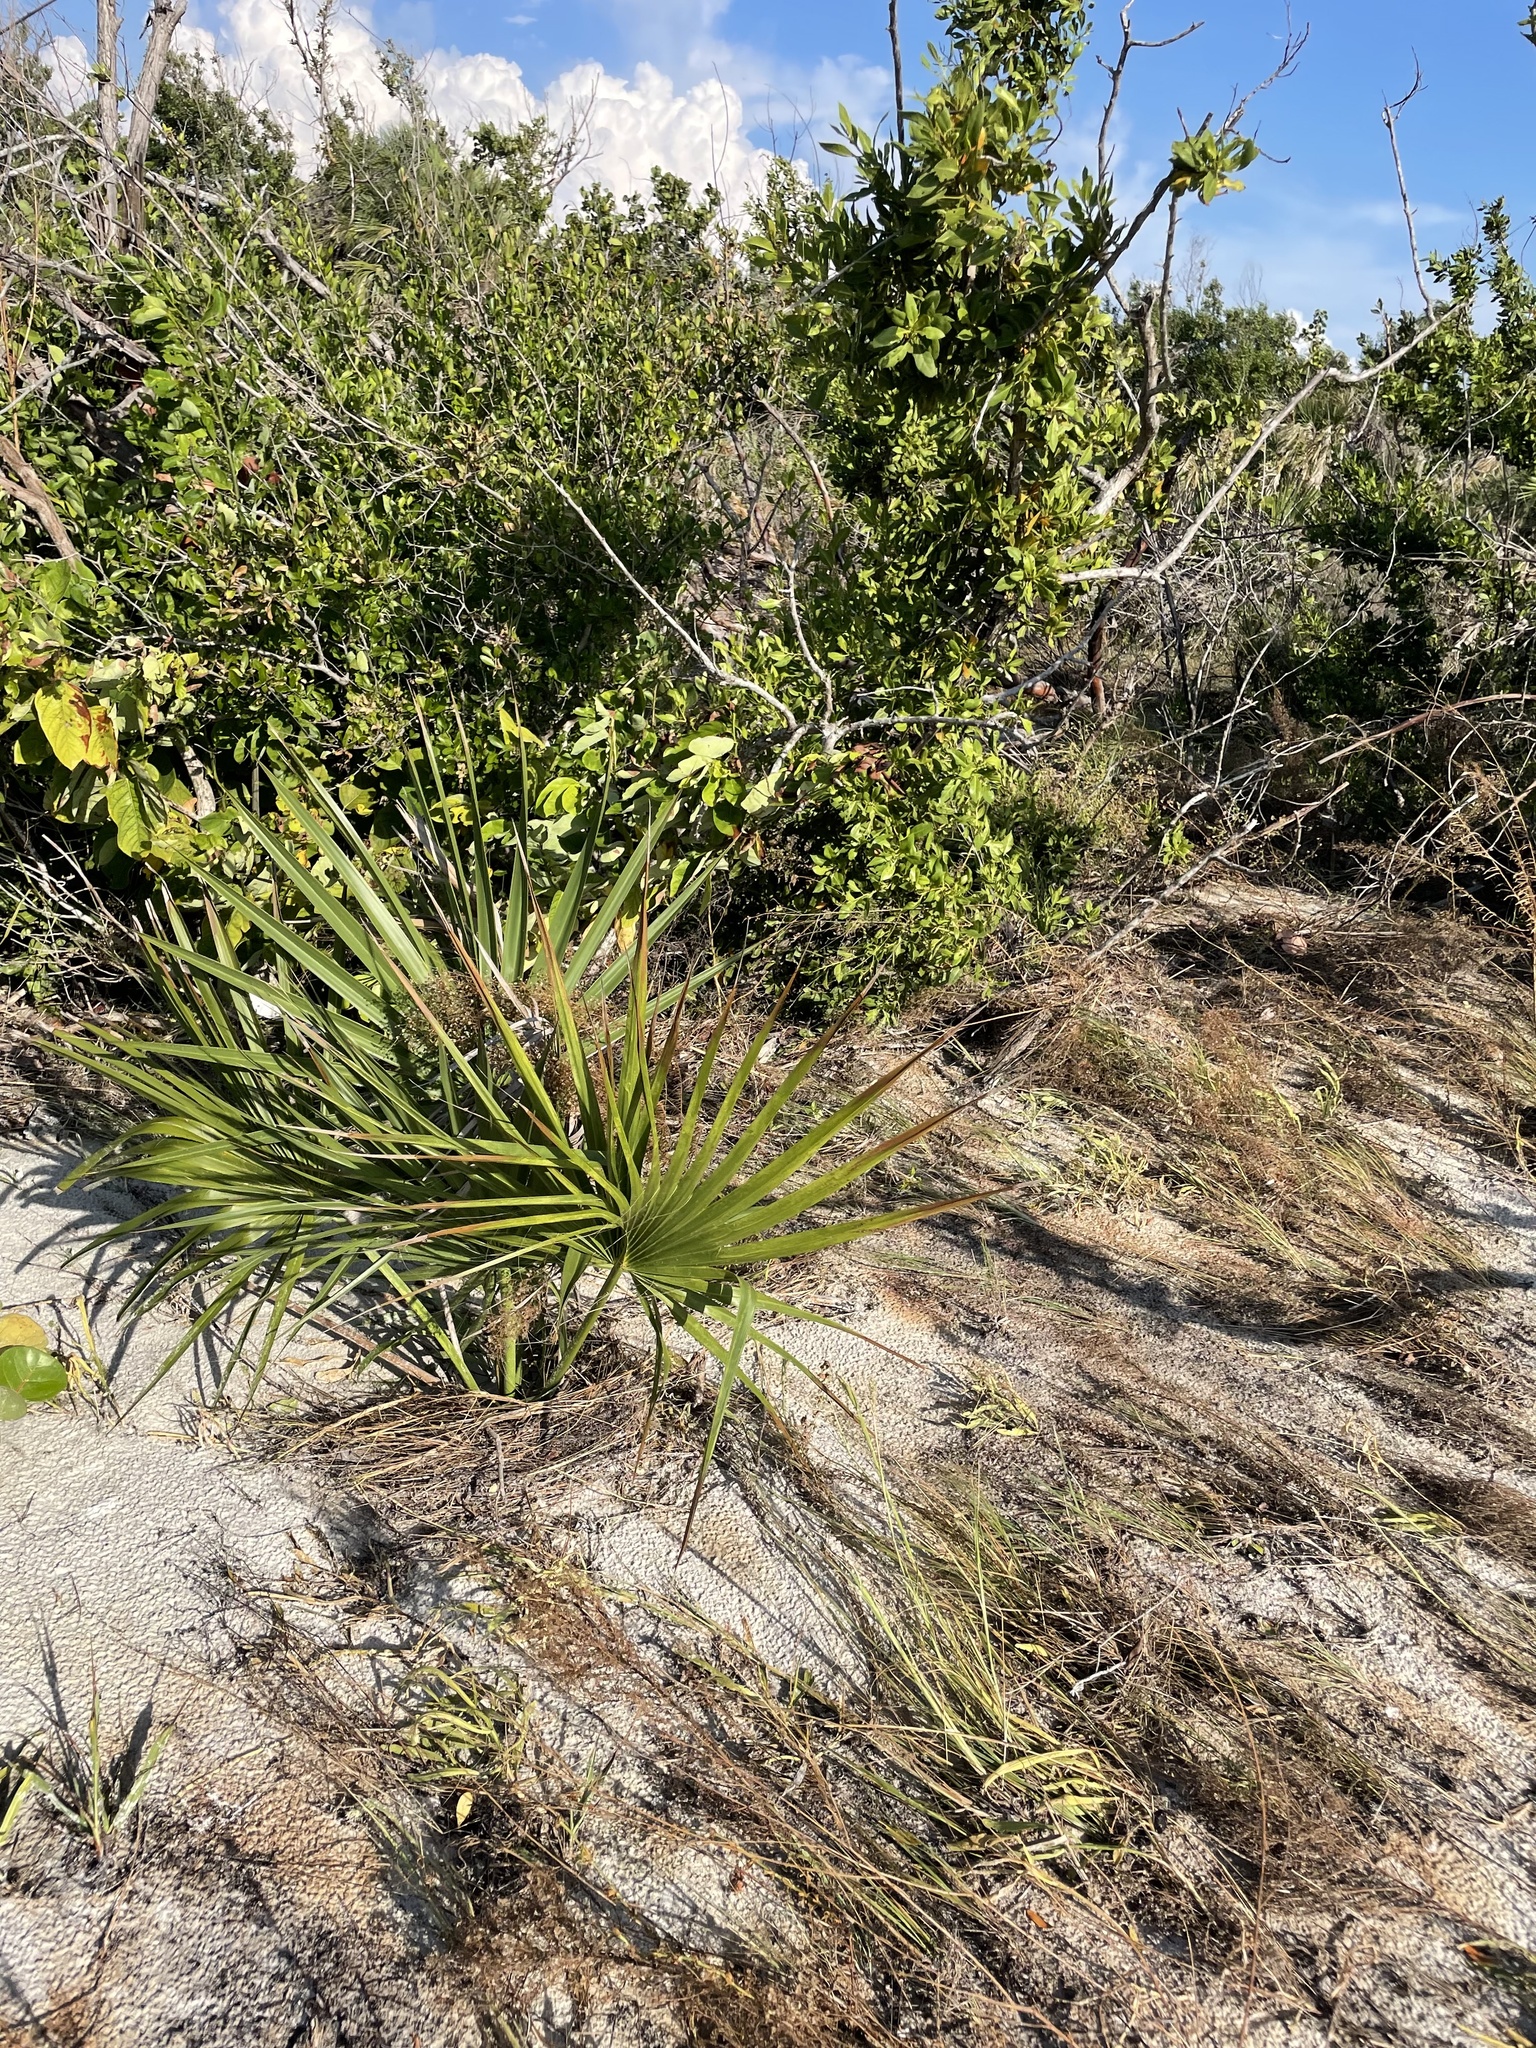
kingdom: Plantae
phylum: Tracheophyta
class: Liliopsida
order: Arecales
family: Arecaceae
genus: Sabal
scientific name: Sabal palmetto
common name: Blue palmetto
